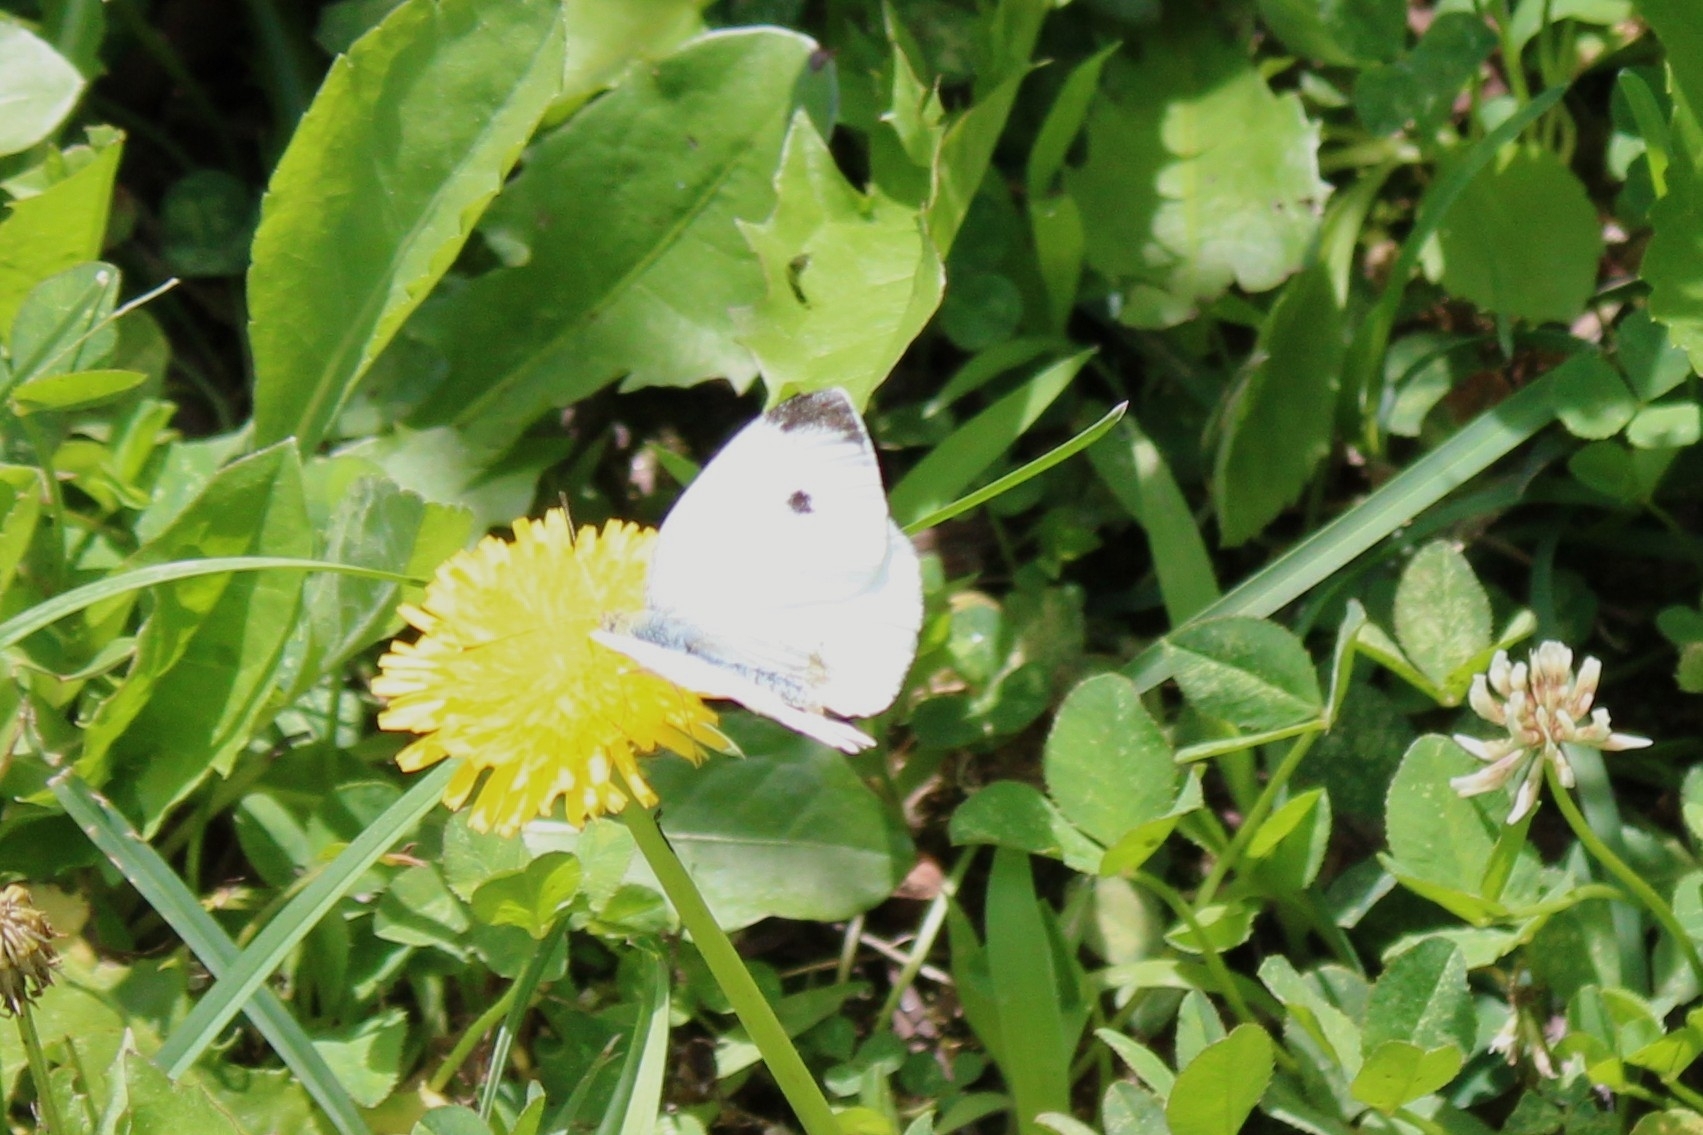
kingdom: Animalia
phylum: Arthropoda
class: Insecta
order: Lepidoptera
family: Pieridae
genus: Pieris
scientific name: Pieris rapae
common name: Small white
